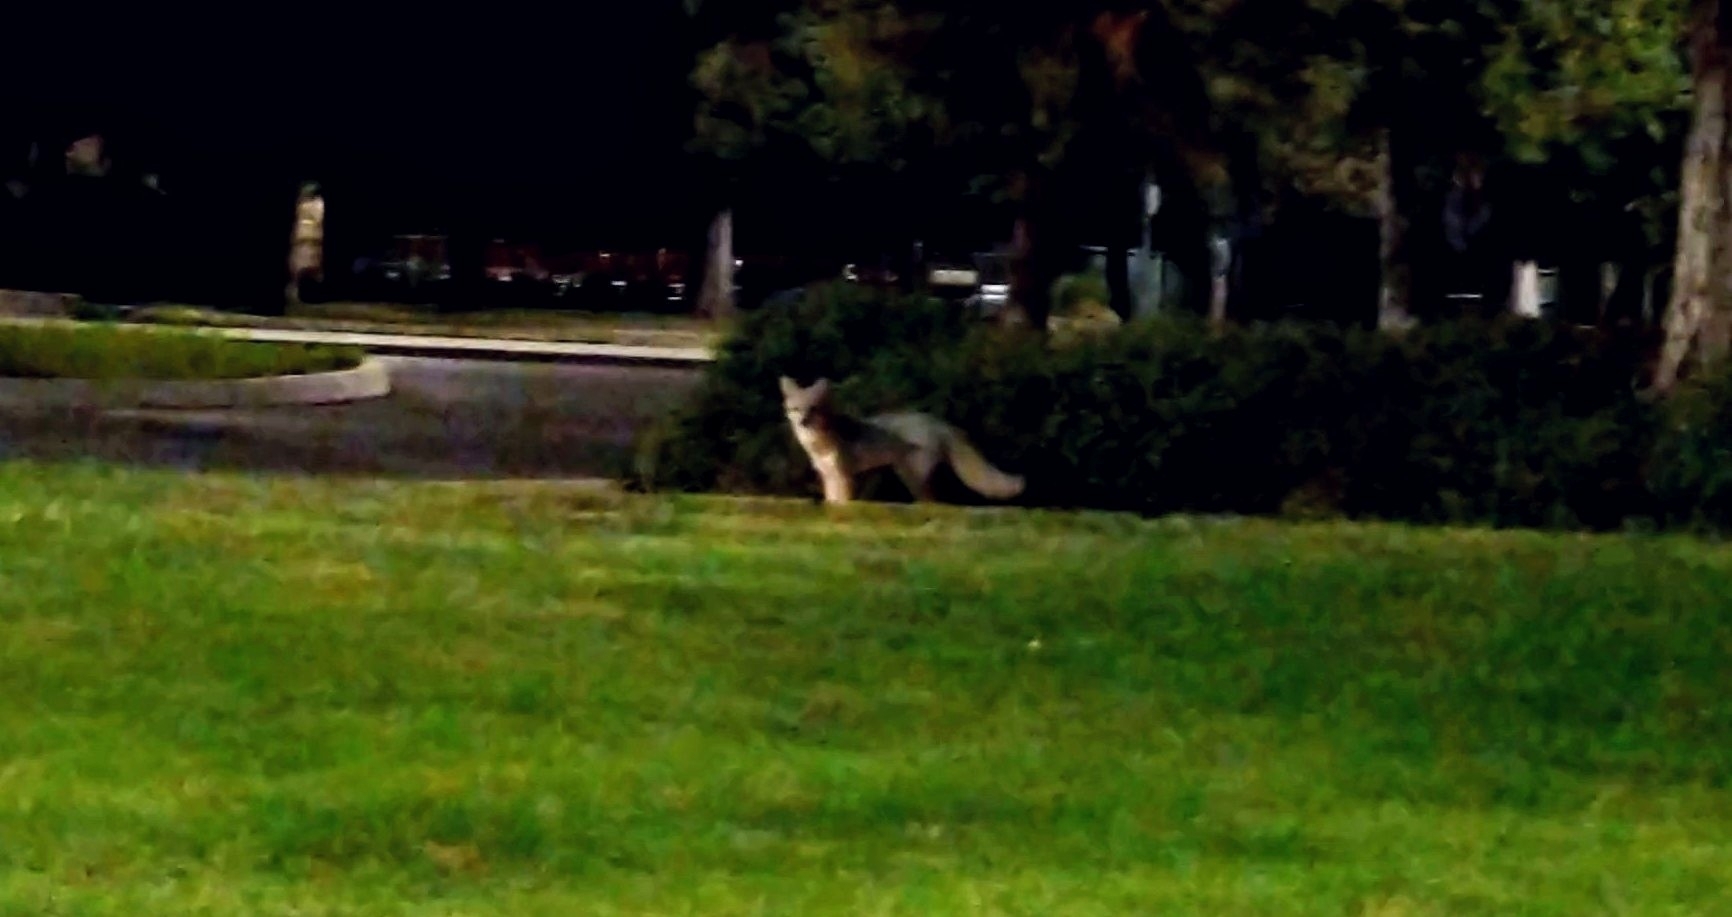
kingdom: Animalia
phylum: Chordata
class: Mammalia
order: Carnivora
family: Canidae
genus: Urocyon
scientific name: Urocyon cinereoargenteus
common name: Gray fox
